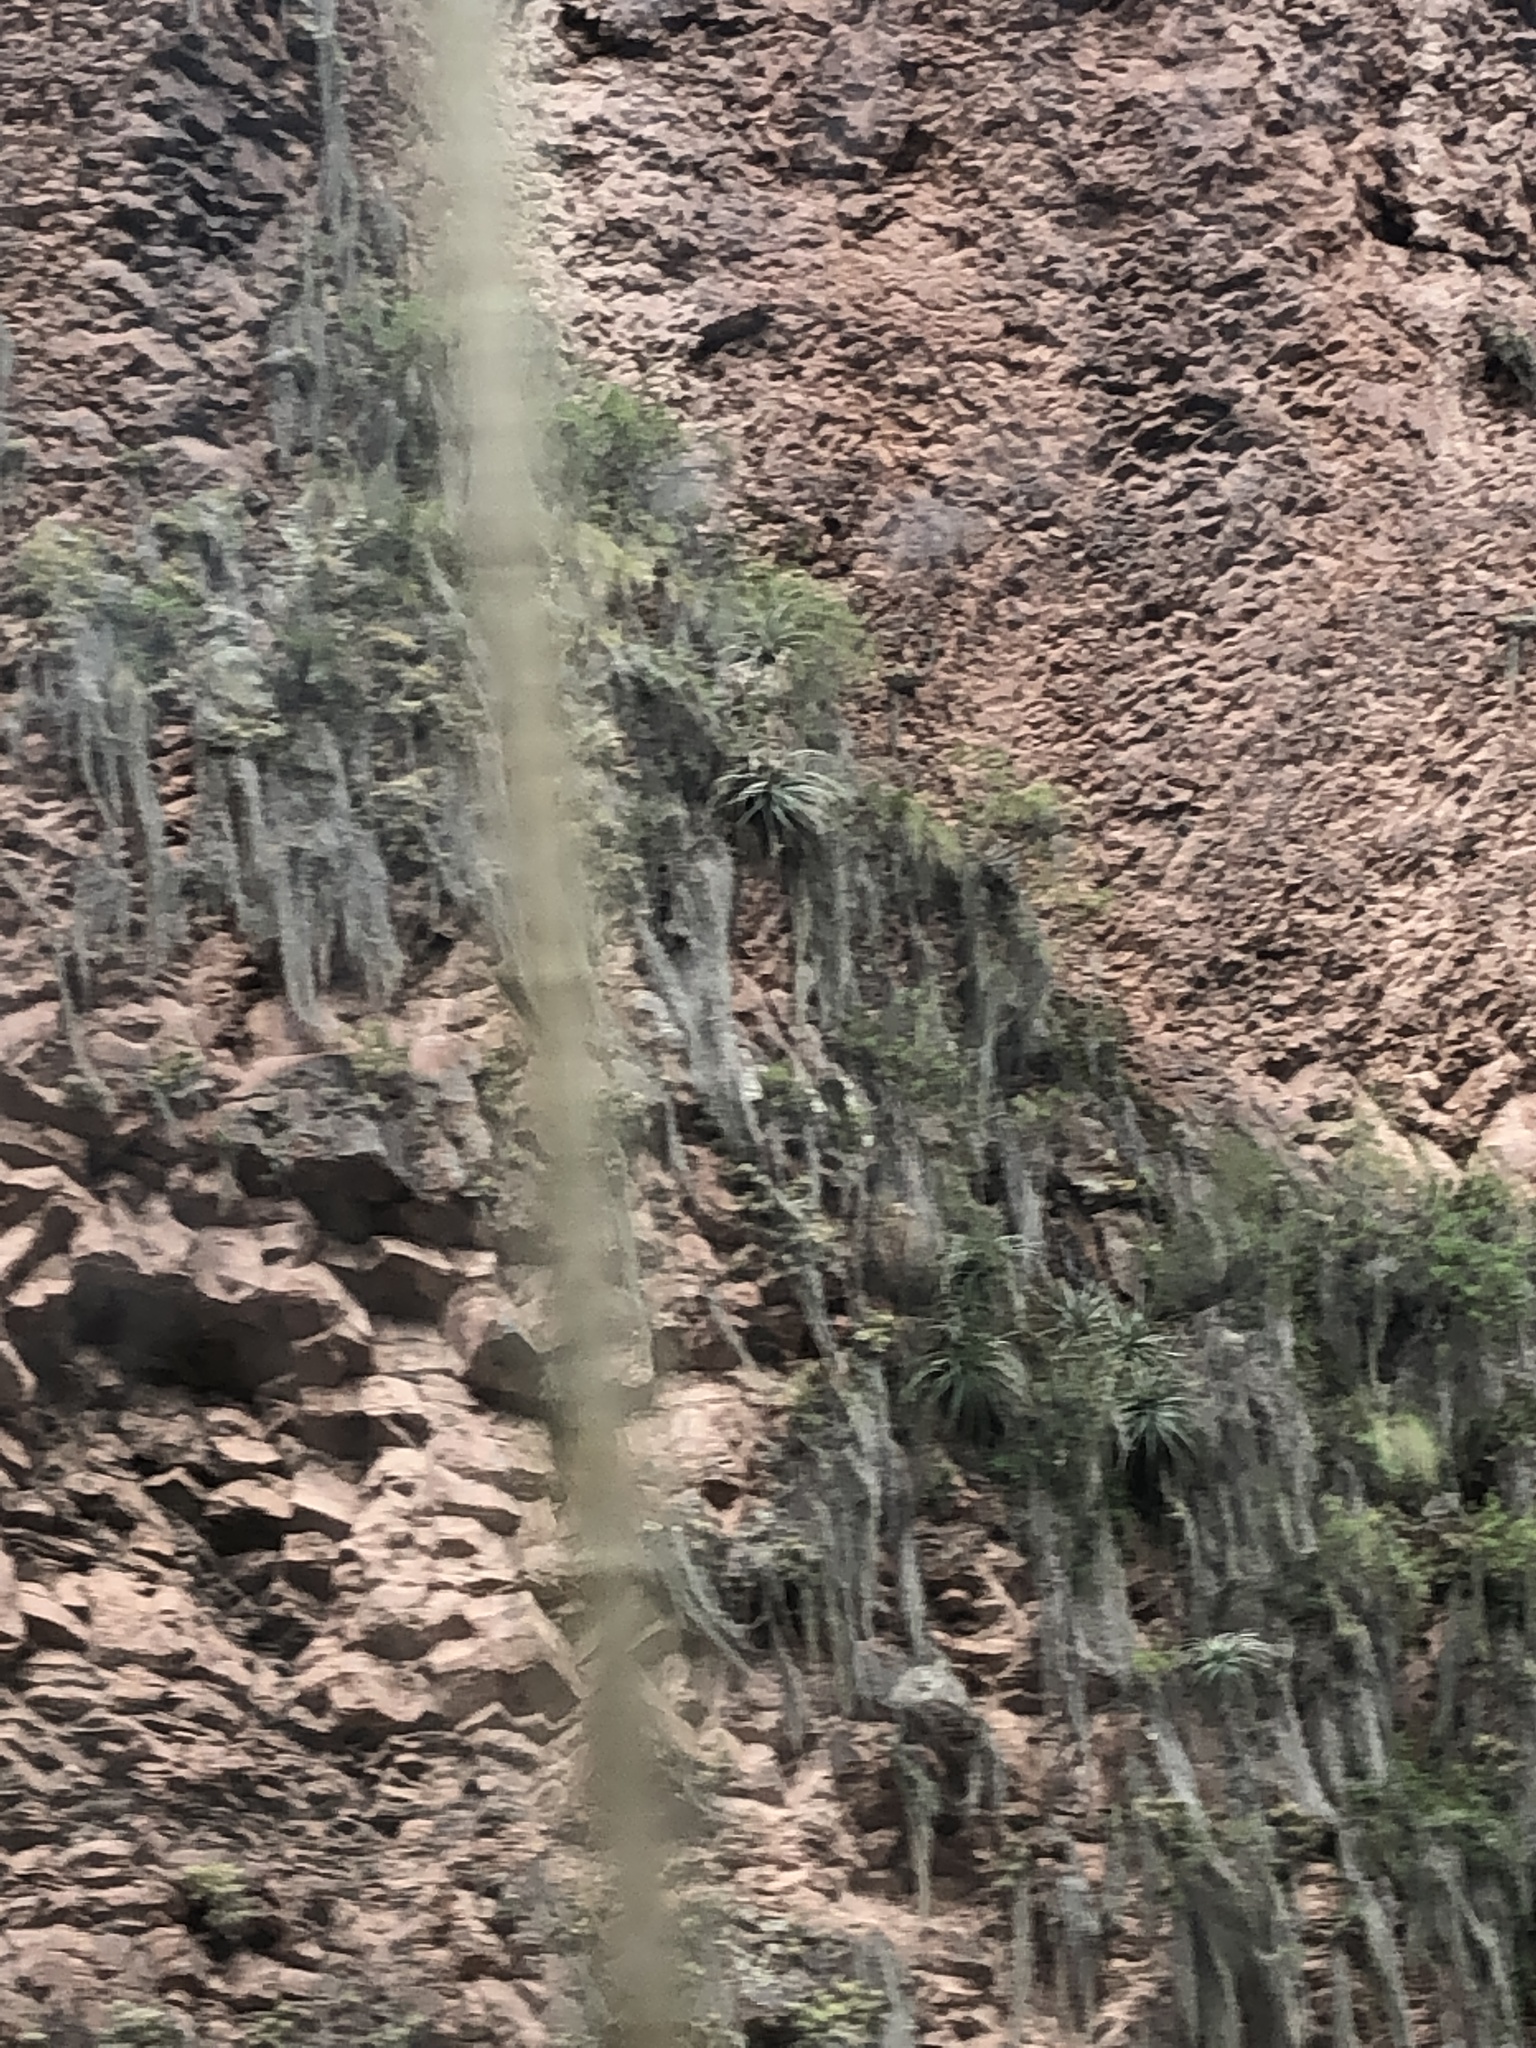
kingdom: Plantae
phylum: Tracheophyta
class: Liliopsida
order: Poales
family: Bromeliaceae
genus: Tillandsia
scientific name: Tillandsia usneoides
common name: Spanish moss
